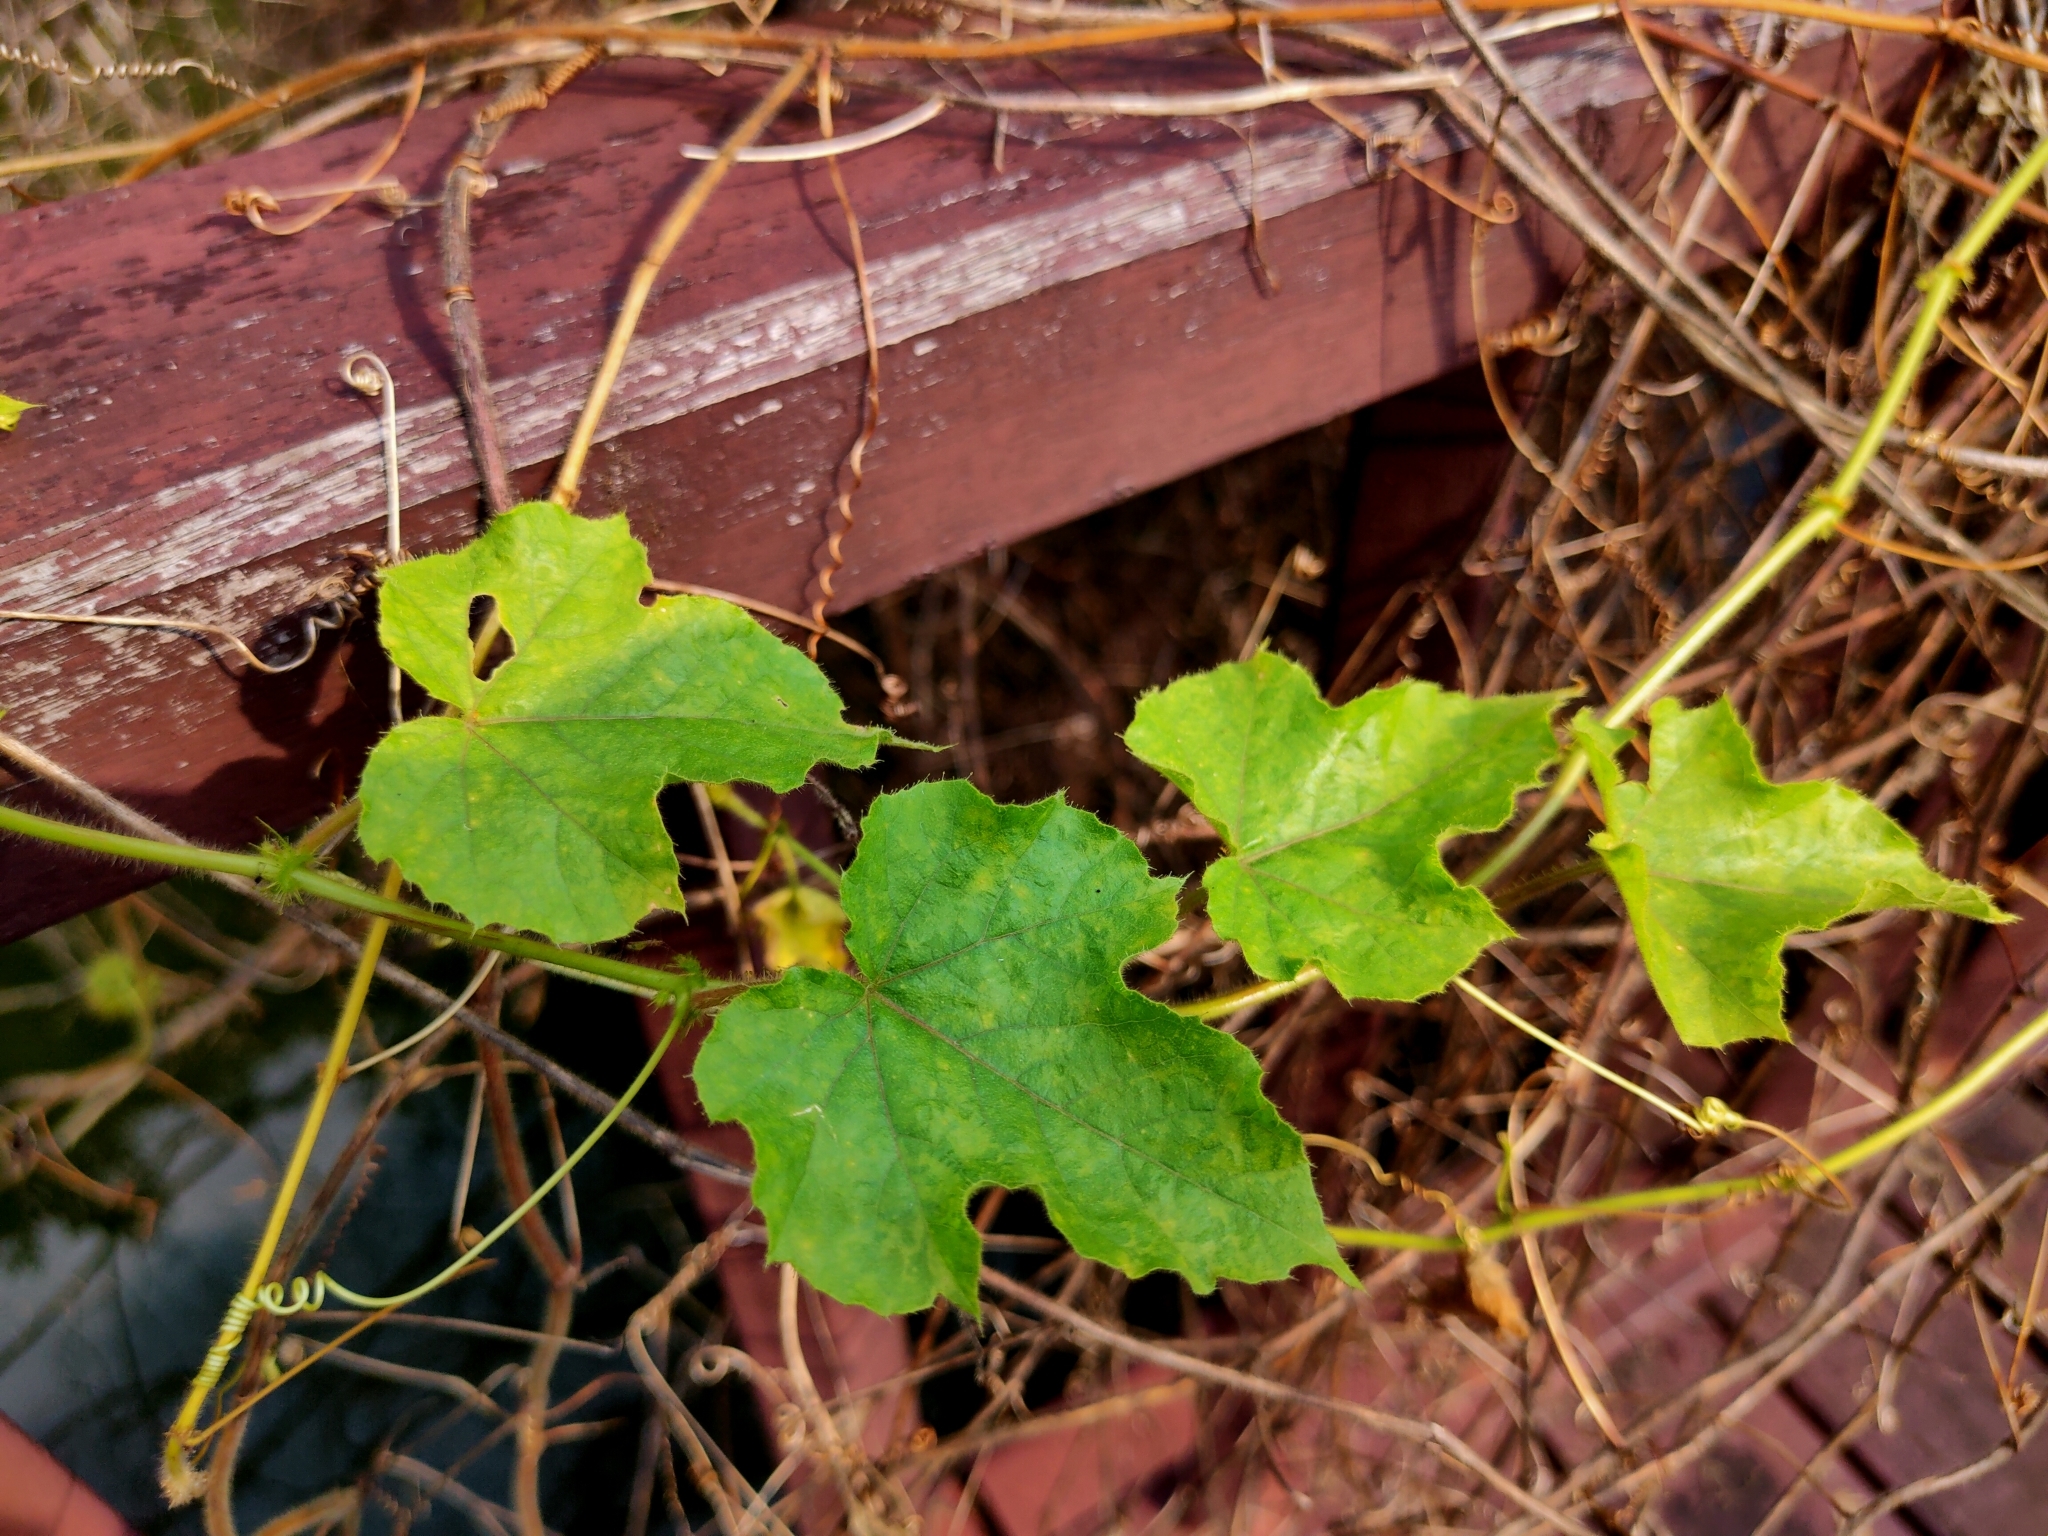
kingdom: Plantae
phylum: Tracheophyta
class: Magnoliopsida
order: Malpighiales
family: Passifloraceae
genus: Passiflora
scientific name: Passiflora foetida
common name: Fetid passionflower
